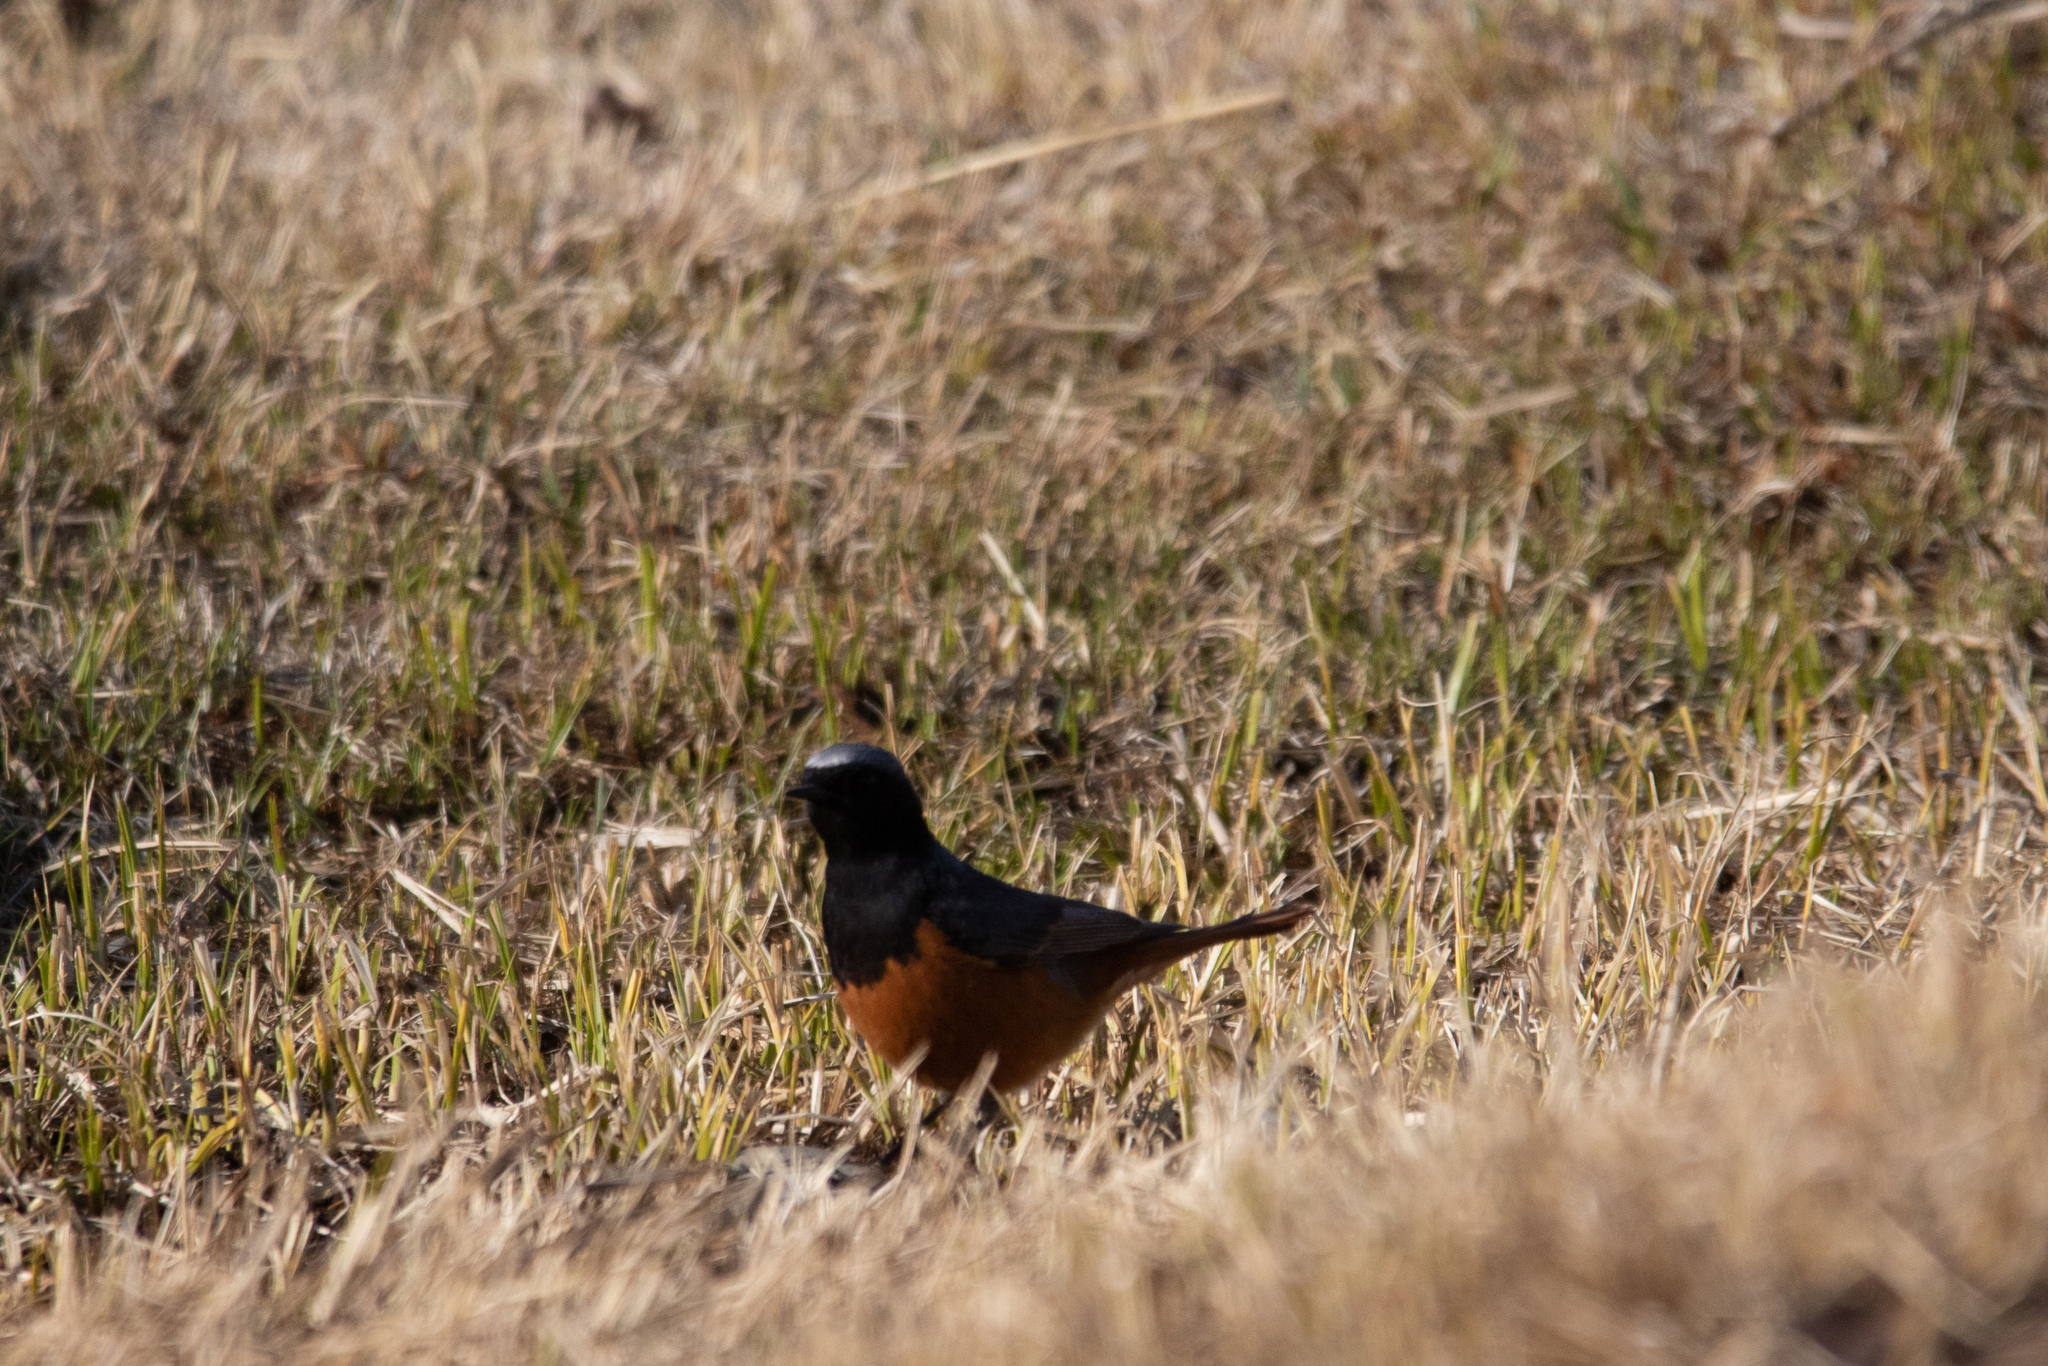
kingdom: Animalia
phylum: Chordata
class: Aves
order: Passeriformes
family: Muscicapidae
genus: Phoenicurus
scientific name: Phoenicurus erythrogastrus
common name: Güldenstädt's redstart
